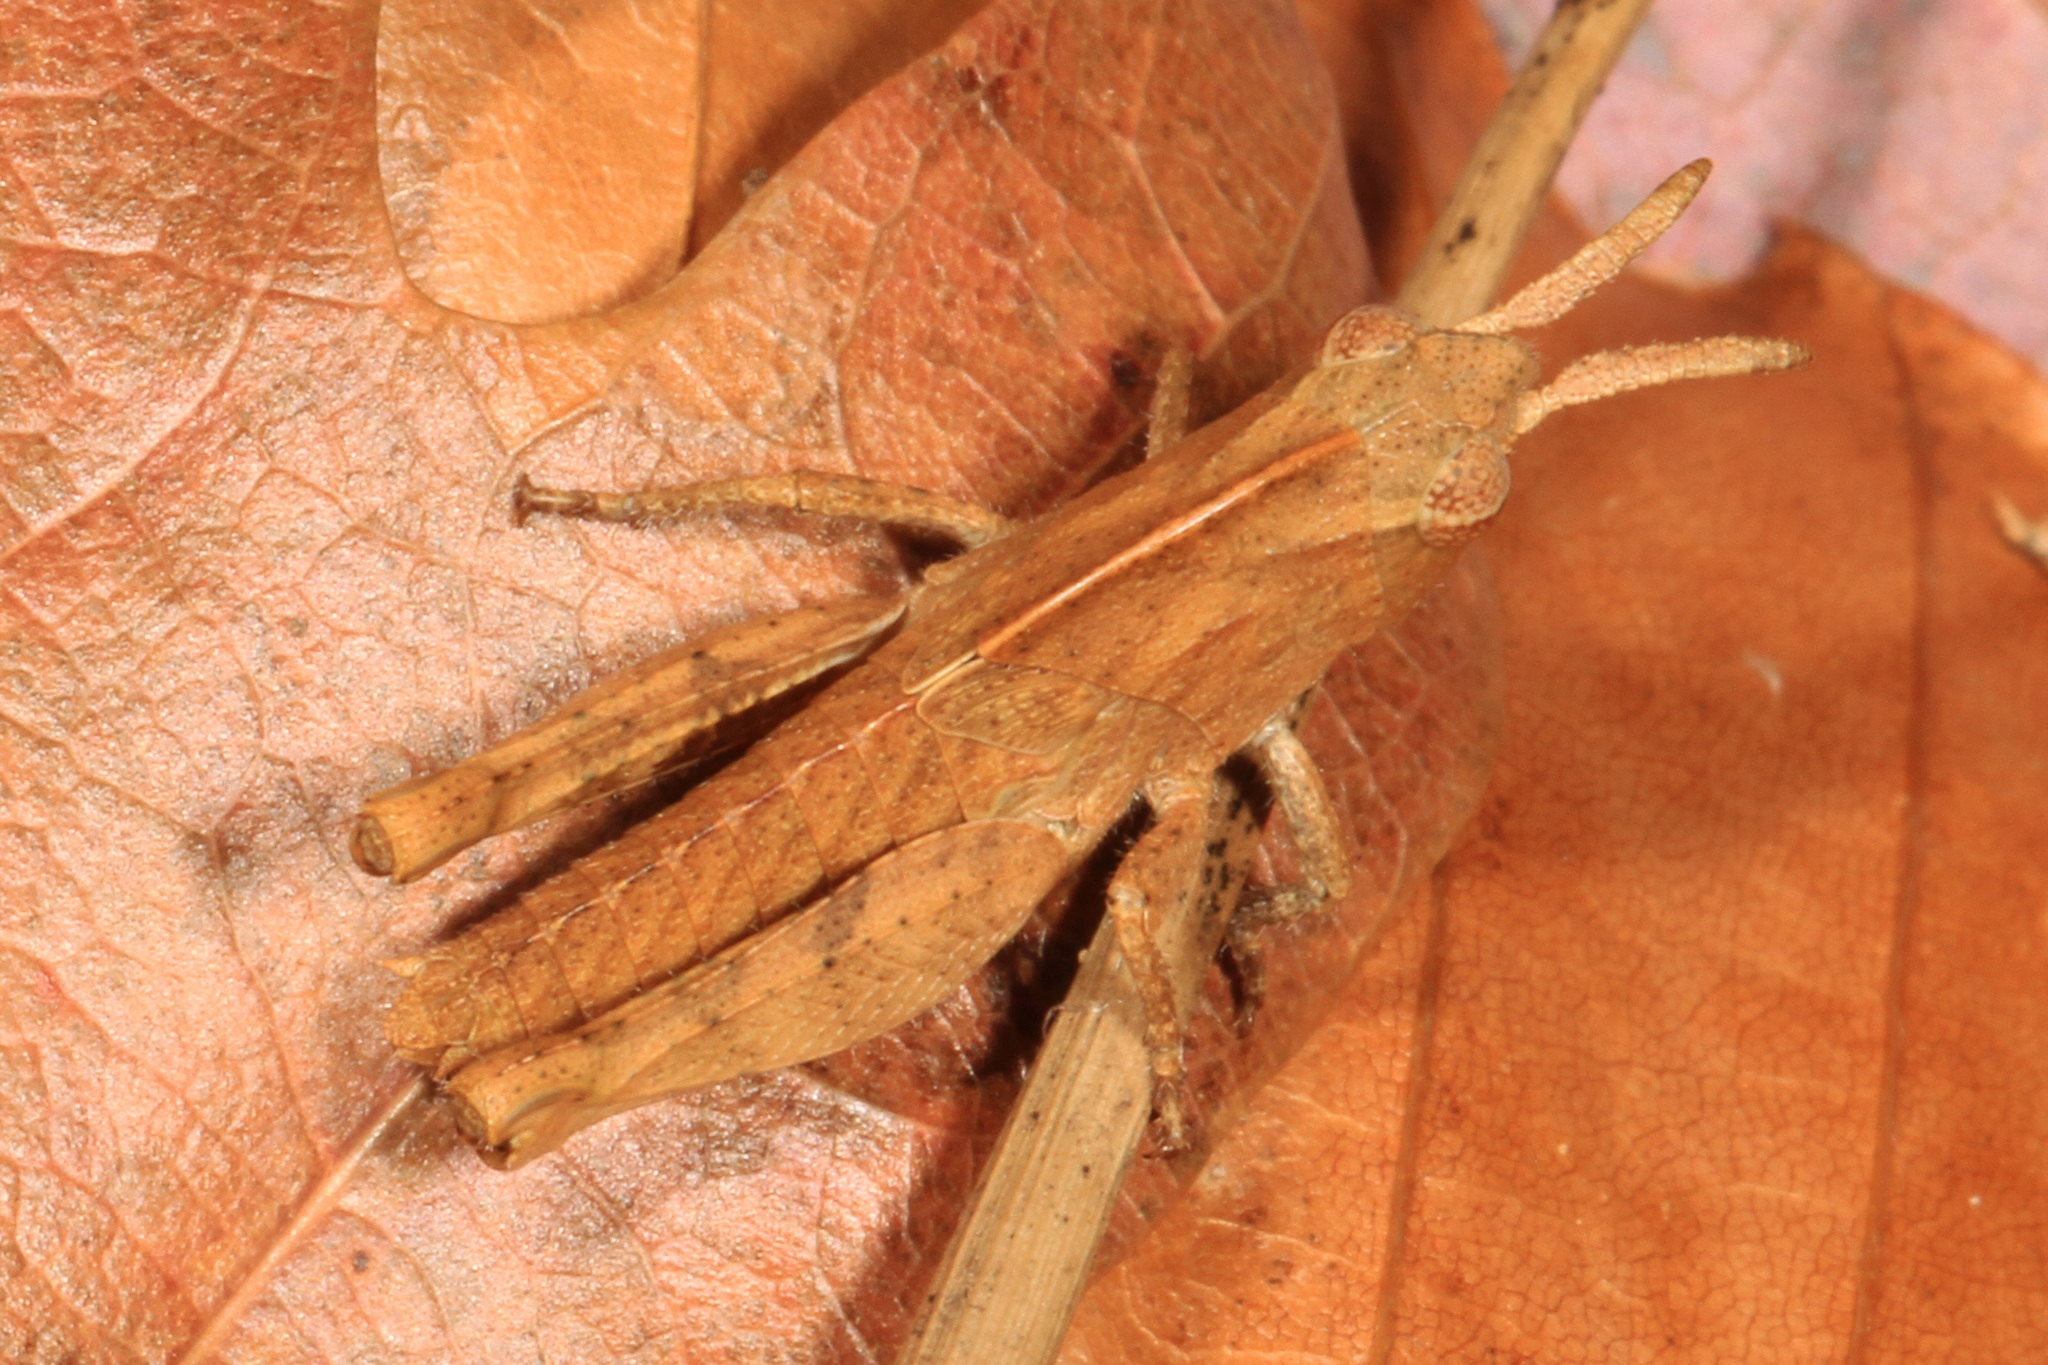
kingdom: Animalia
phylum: Arthropoda
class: Insecta
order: Orthoptera
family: Acrididae
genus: Chortophaga
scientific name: Chortophaga viridifasciata
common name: Green-striped grasshopper
